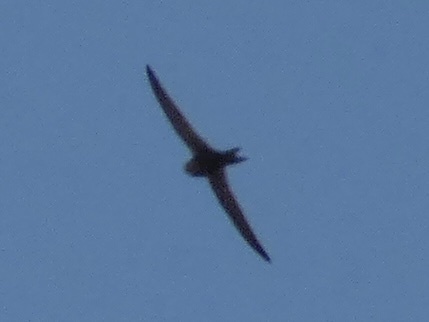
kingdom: Animalia
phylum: Chordata
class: Aves
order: Apodiformes
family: Apodidae
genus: Apus
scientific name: Apus apus
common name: Common swift
